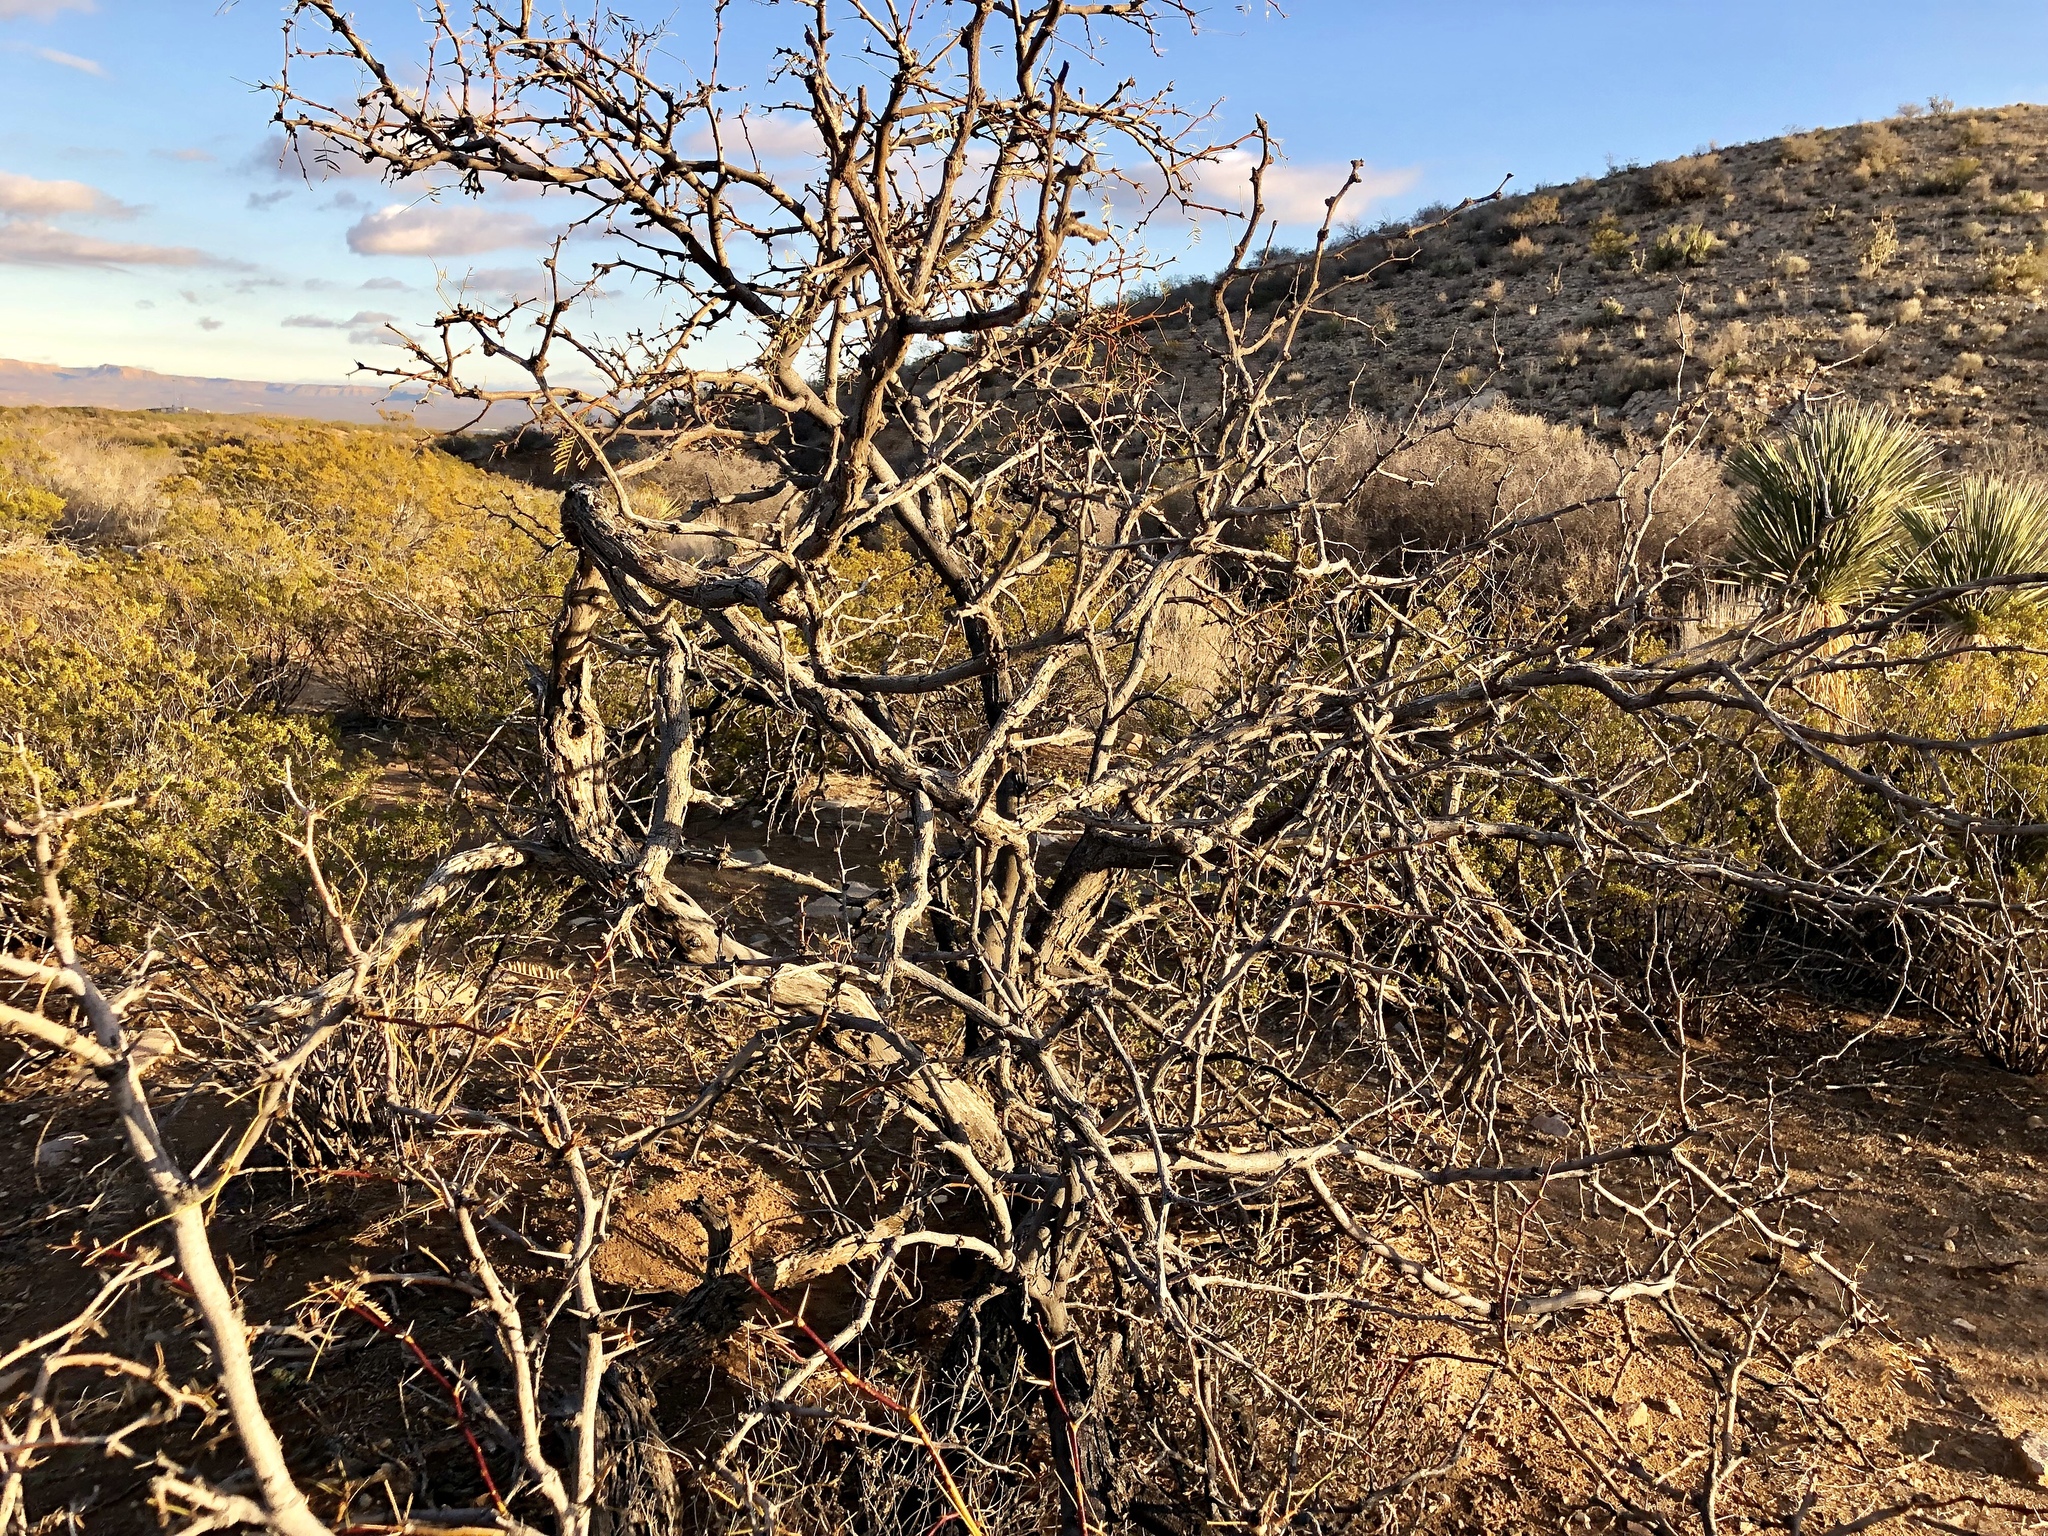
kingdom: Plantae
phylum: Tracheophyta
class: Magnoliopsida
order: Fabales
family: Fabaceae
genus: Prosopis
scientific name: Prosopis glandulosa
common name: Honey mesquite
